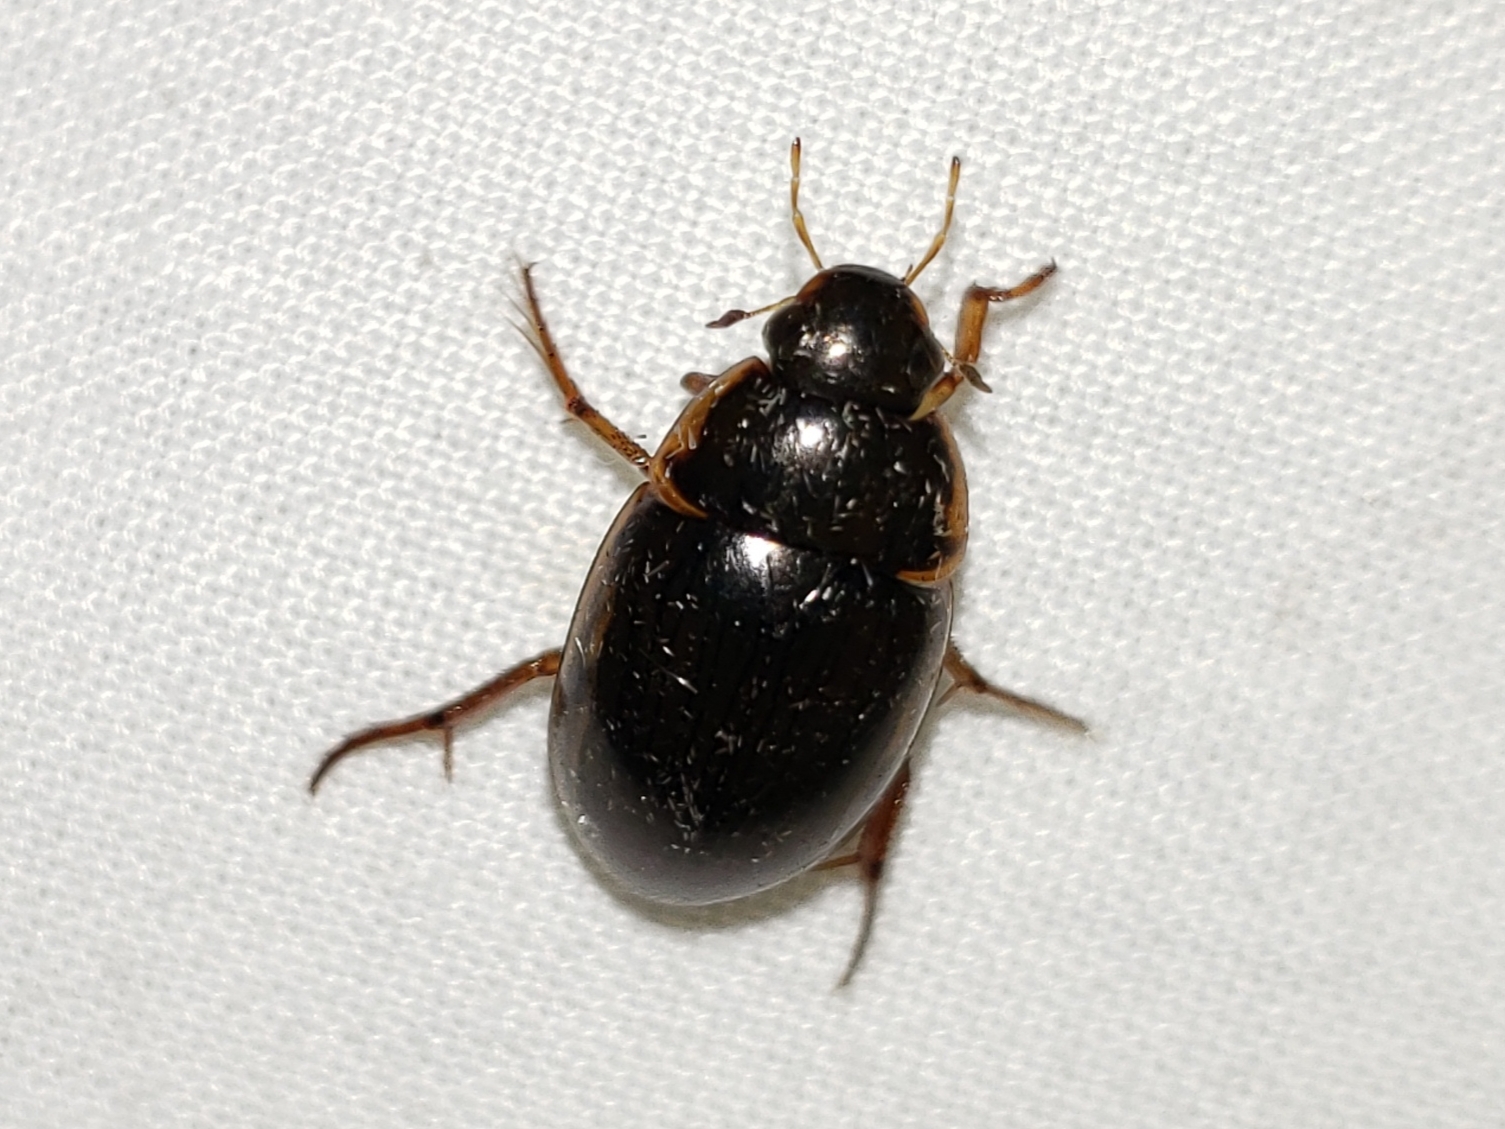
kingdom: Animalia
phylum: Arthropoda
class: Insecta
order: Coleoptera
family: Hydrophilidae
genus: Tropisternus
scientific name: Tropisternus collaris
